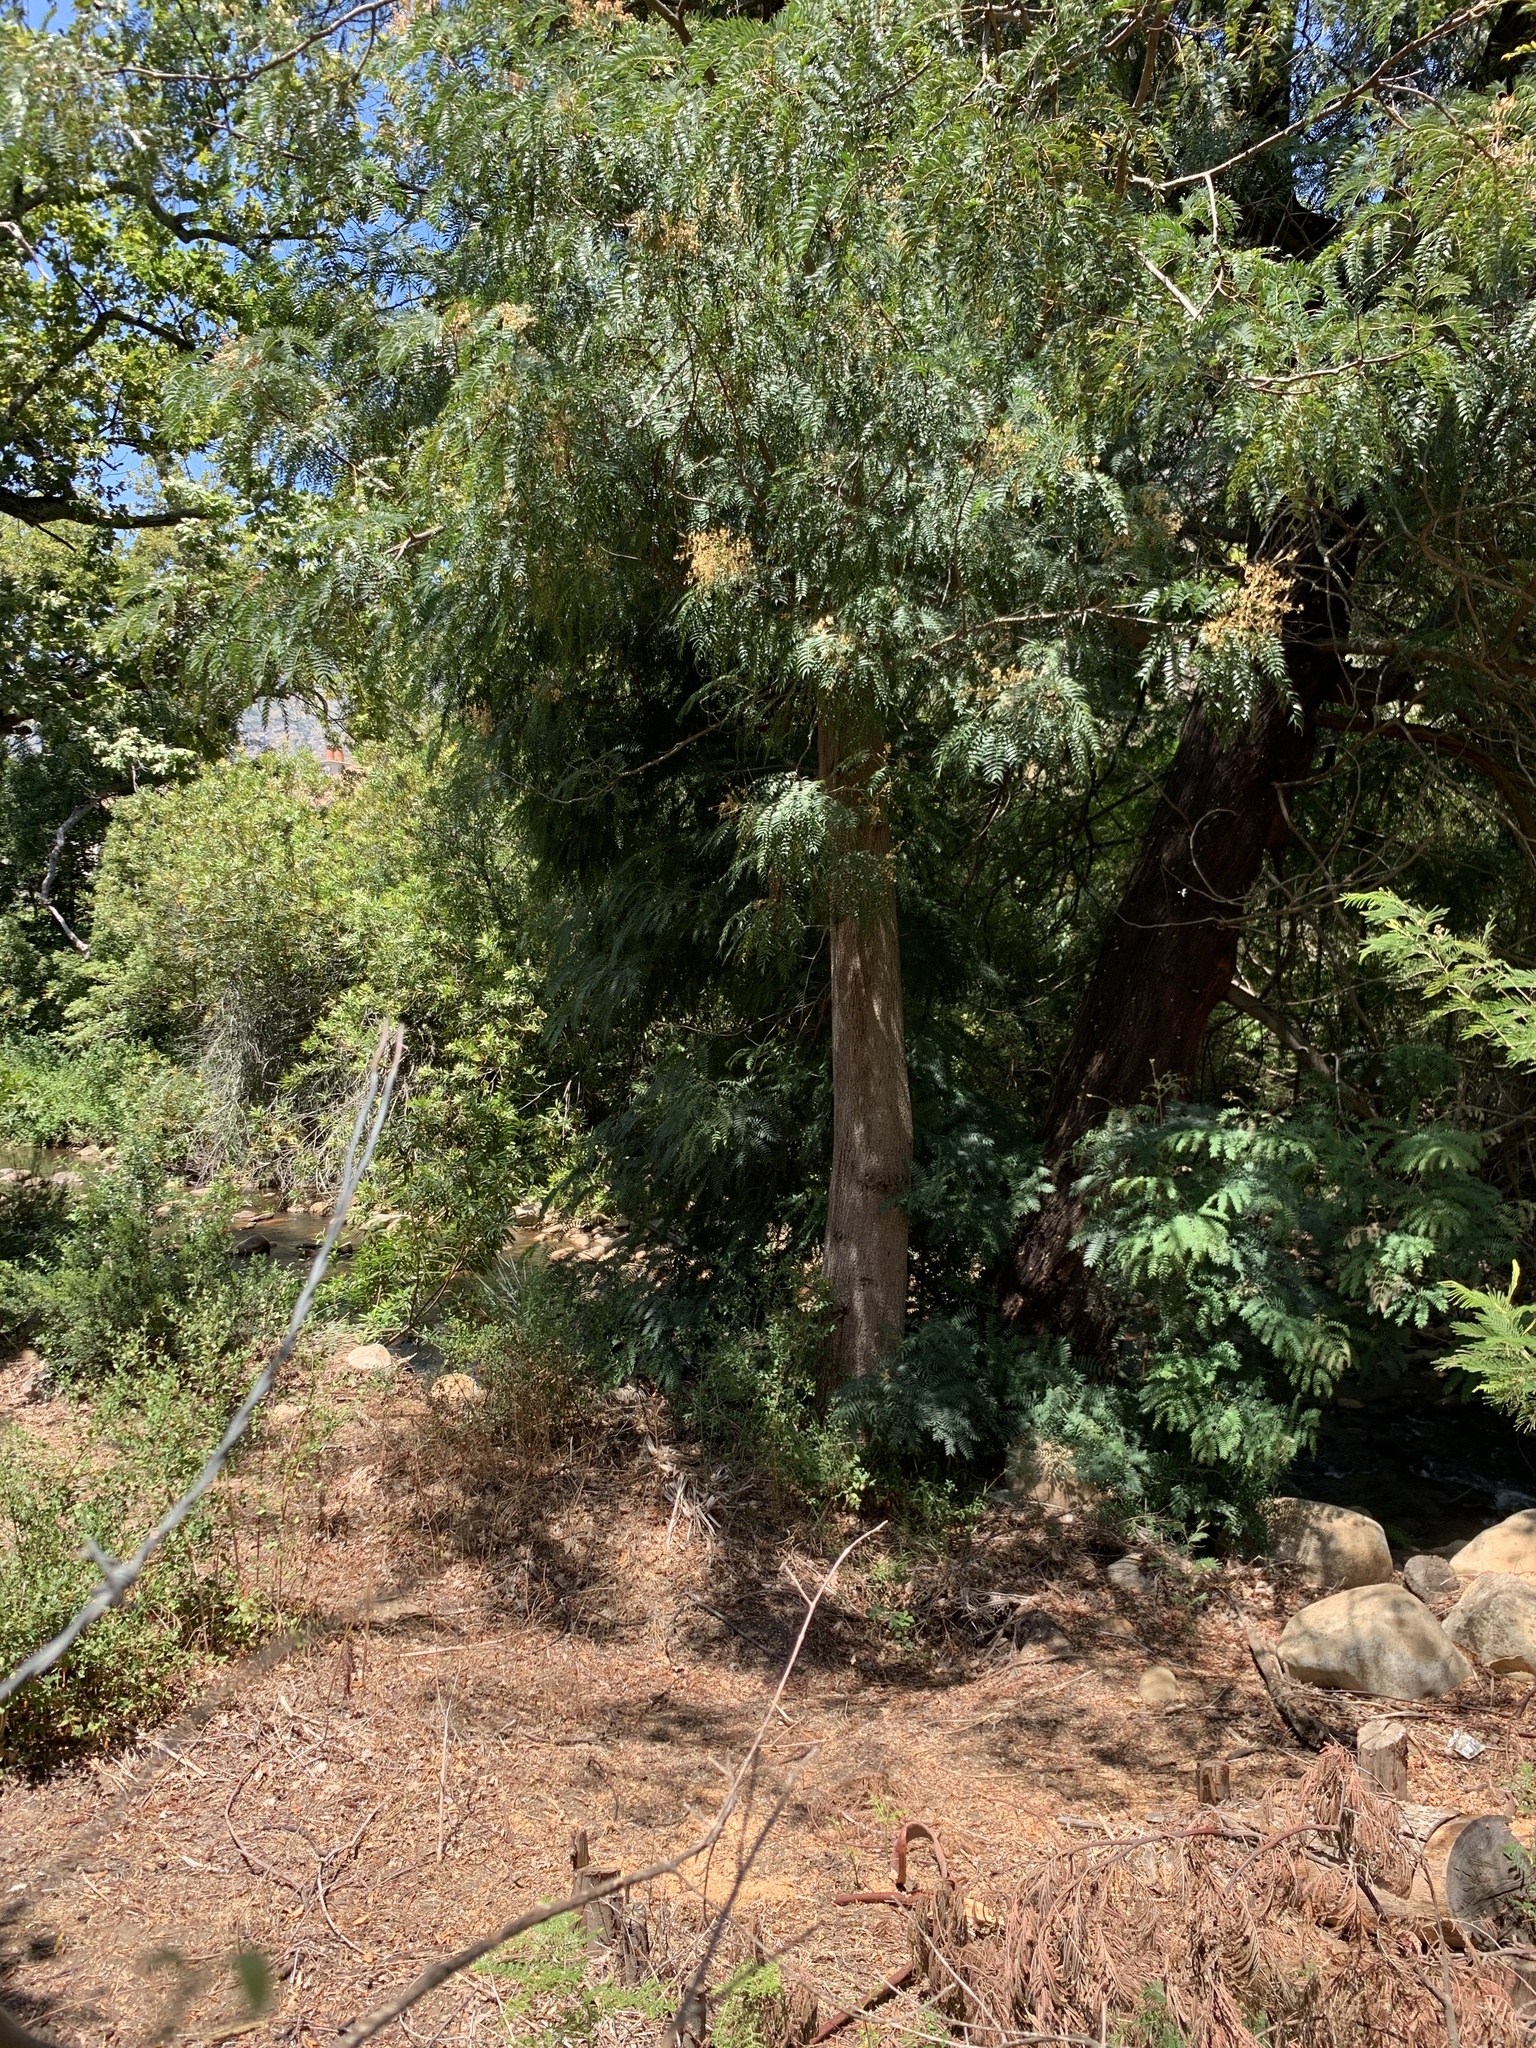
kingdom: Plantae
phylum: Tracheophyta
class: Magnoliopsida
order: Fabales
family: Fabaceae
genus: Acacia
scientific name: Acacia elata
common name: Cedar wattle
